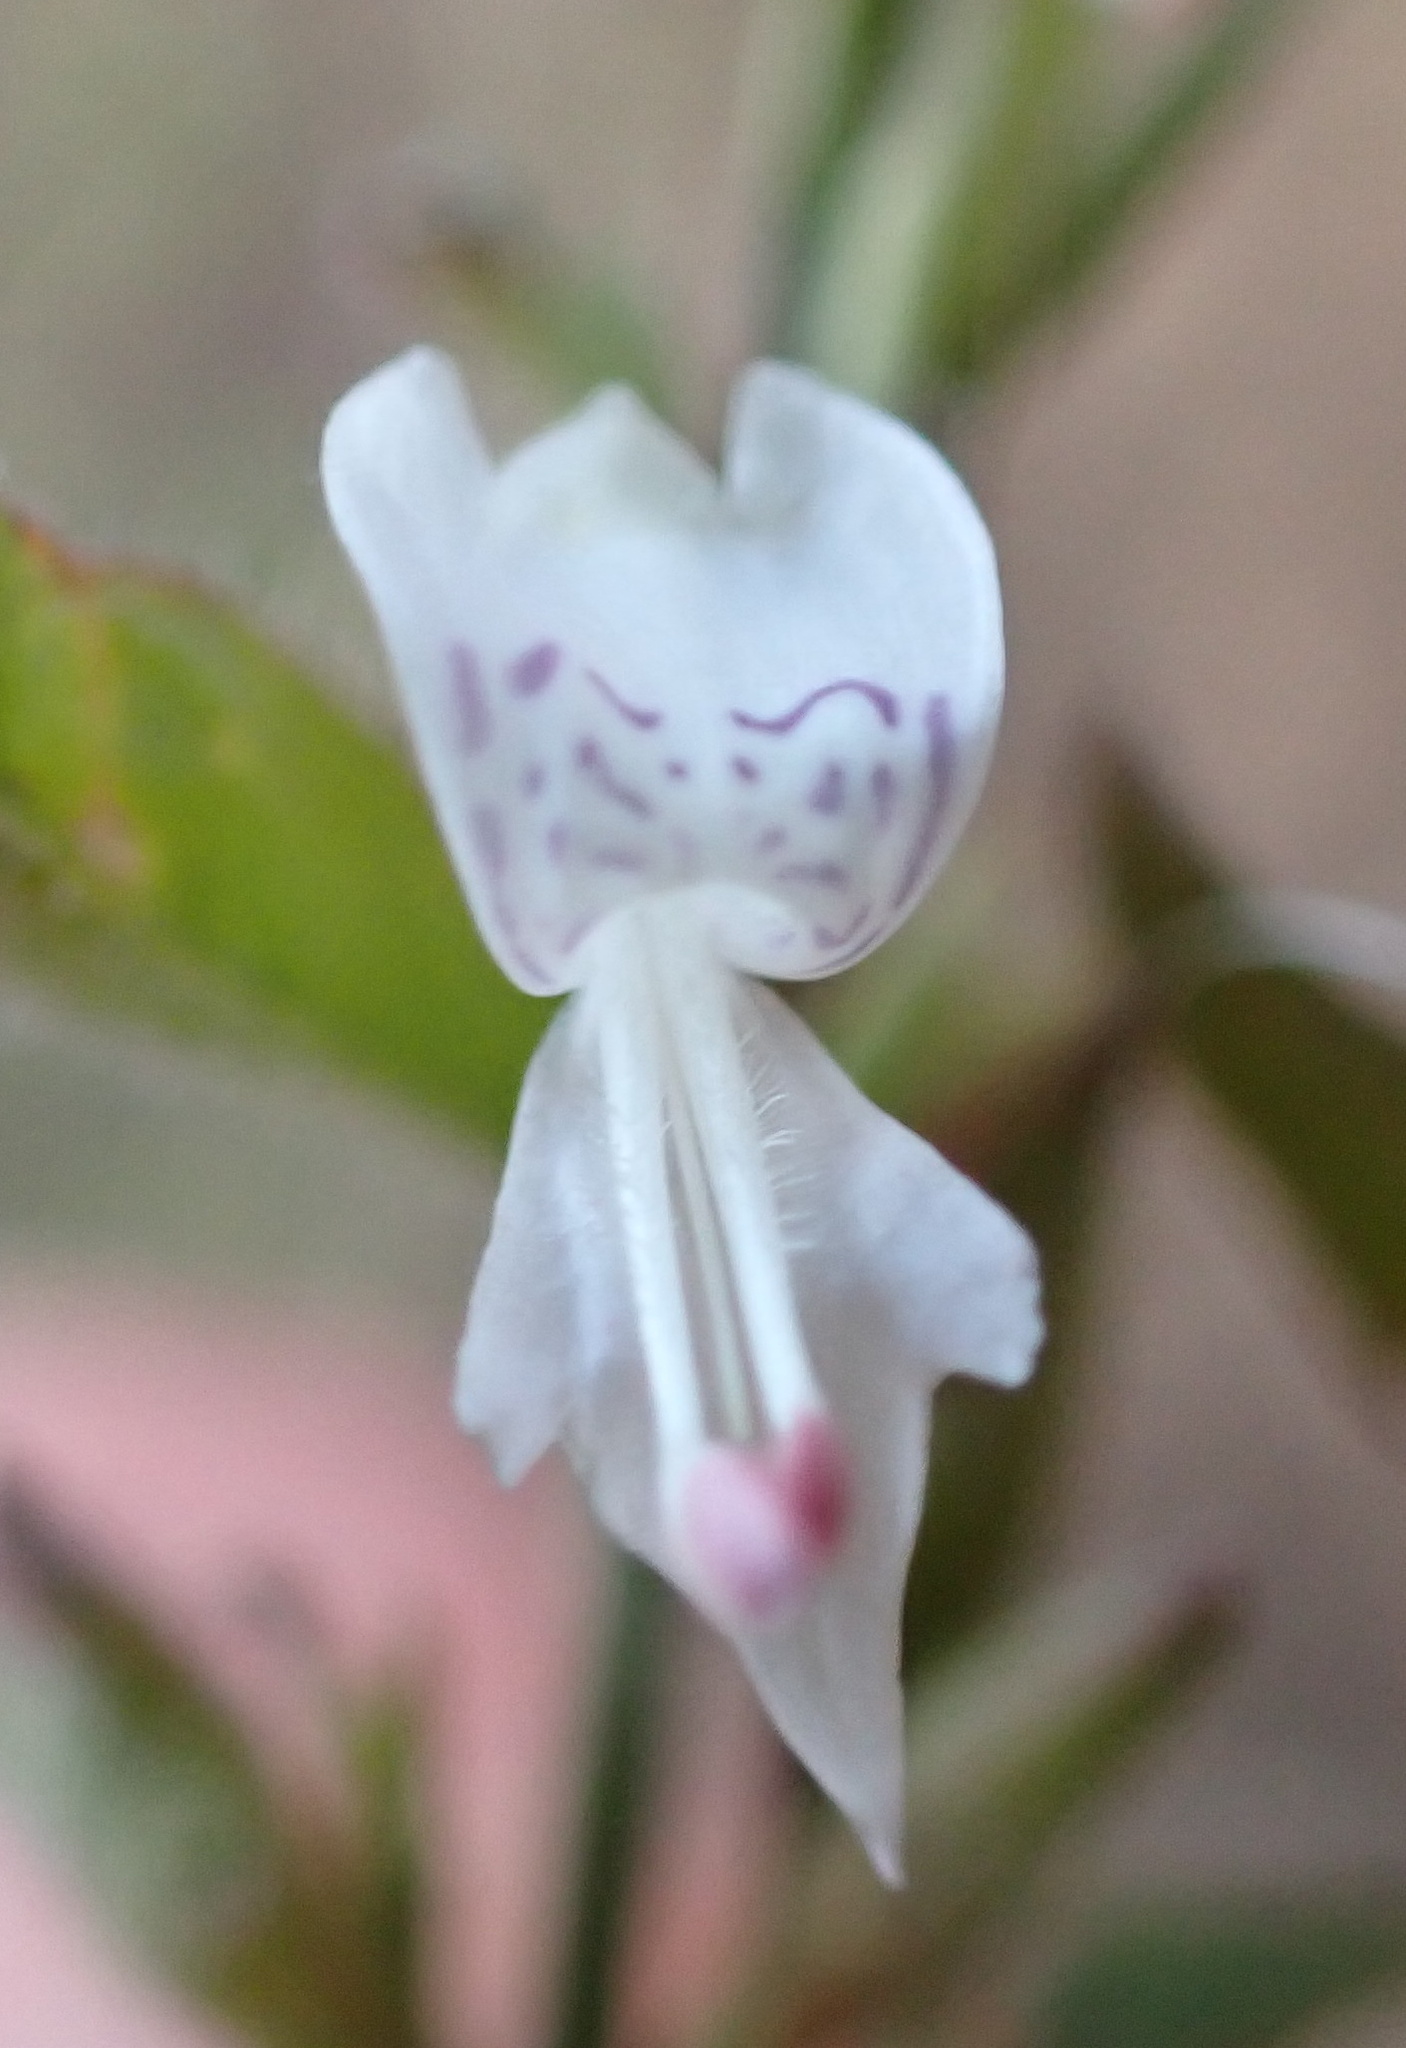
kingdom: Plantae
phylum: Tracheophyta
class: Magnoliopsida
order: Lamiales
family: Acanthaceae
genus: Hypoestes
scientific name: Hypoestes forskaolii
